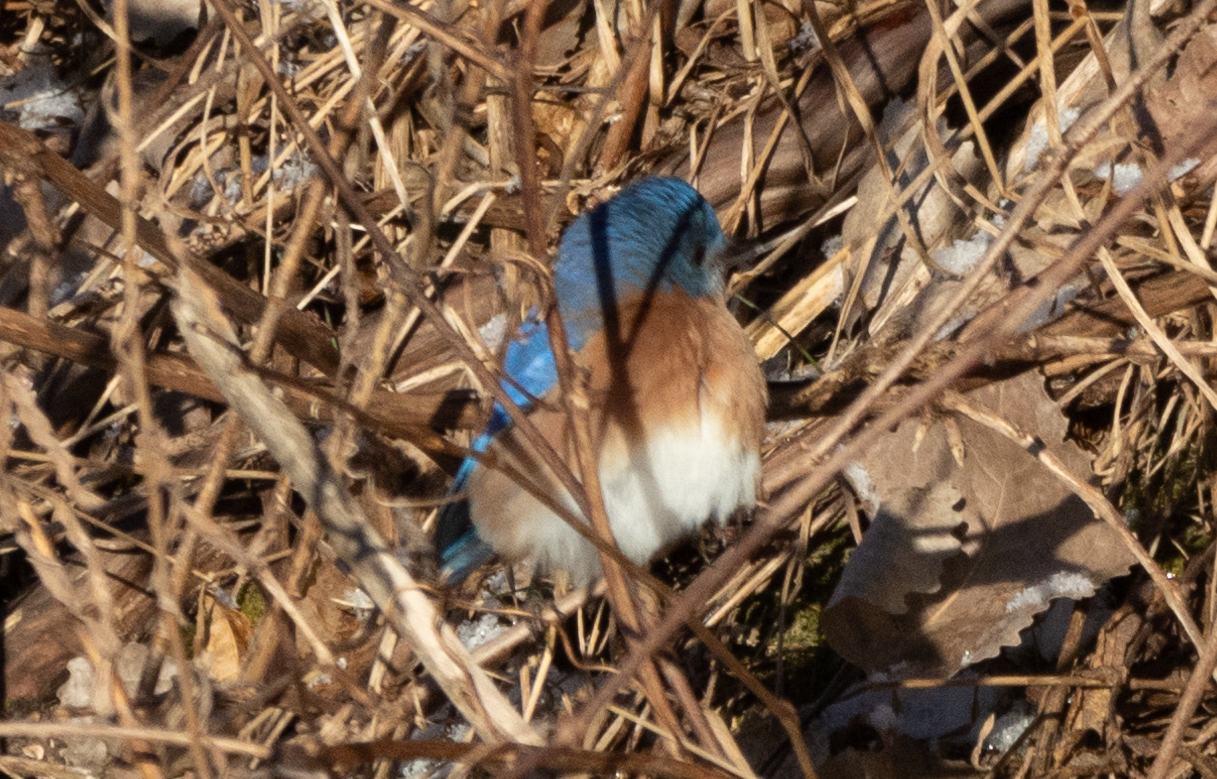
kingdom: Animalia
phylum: Chordata
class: Aves
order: Passeriformes
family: Turdidae
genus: Sialia
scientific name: Sialia sialis
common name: Eastern bluebird
